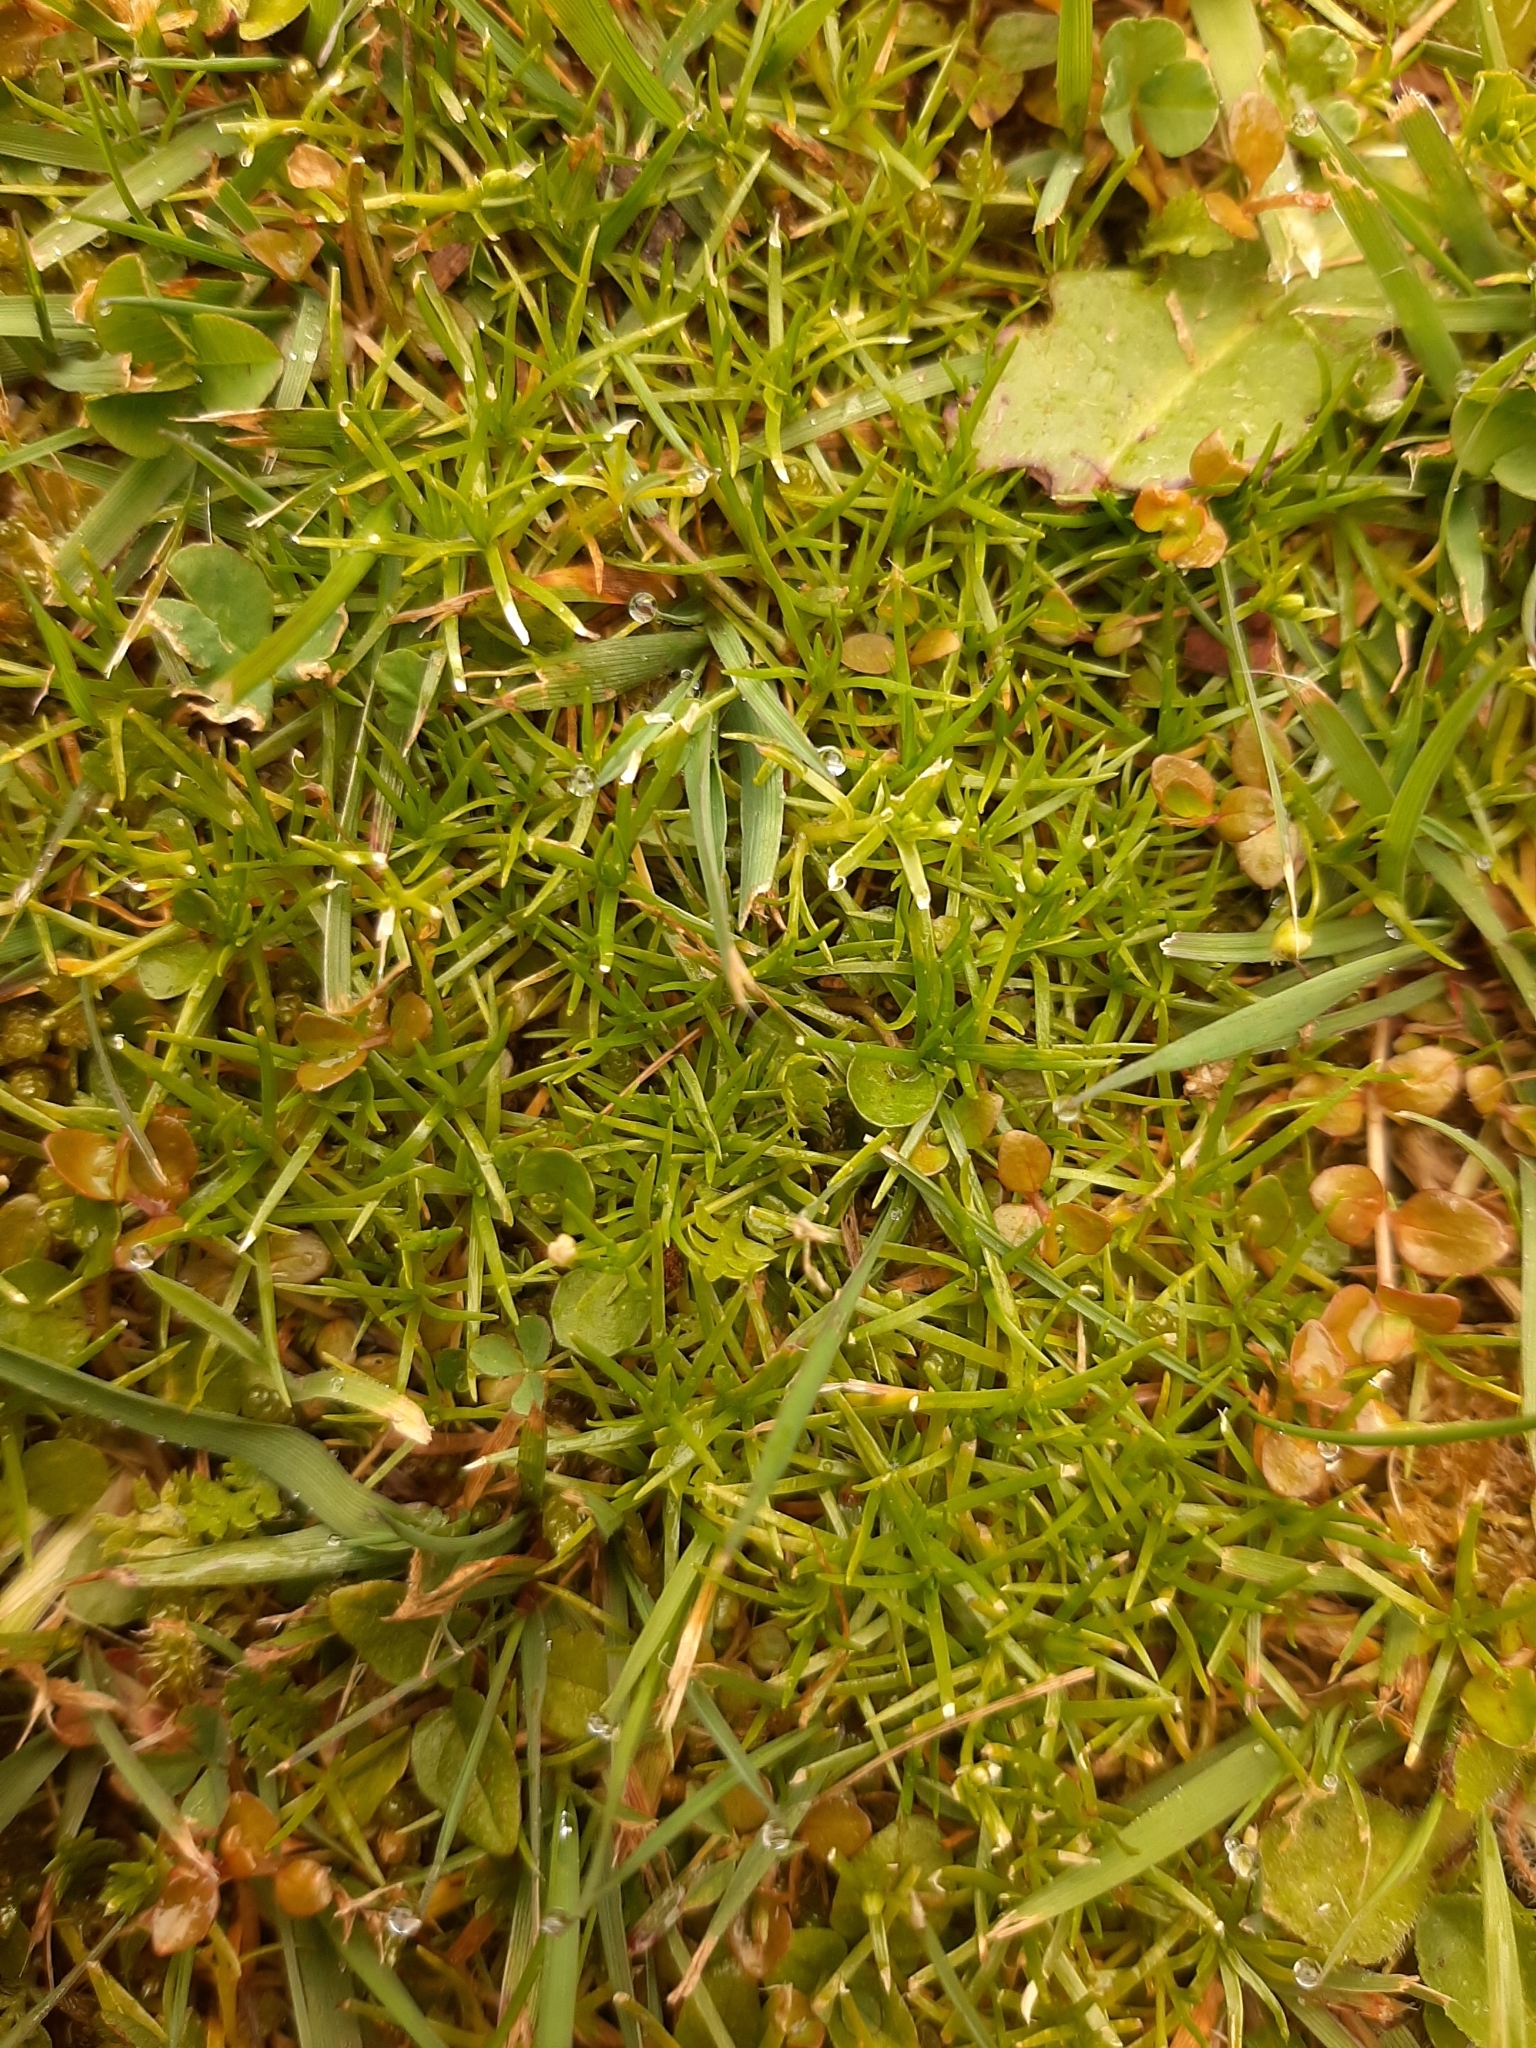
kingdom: Plantae
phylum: Tracheophyta
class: Magnoliopsida
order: Caryophyllales
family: Caryophyllaceae
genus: Sagina
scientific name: Sagina procumbens
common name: Procumbent pearlwort
